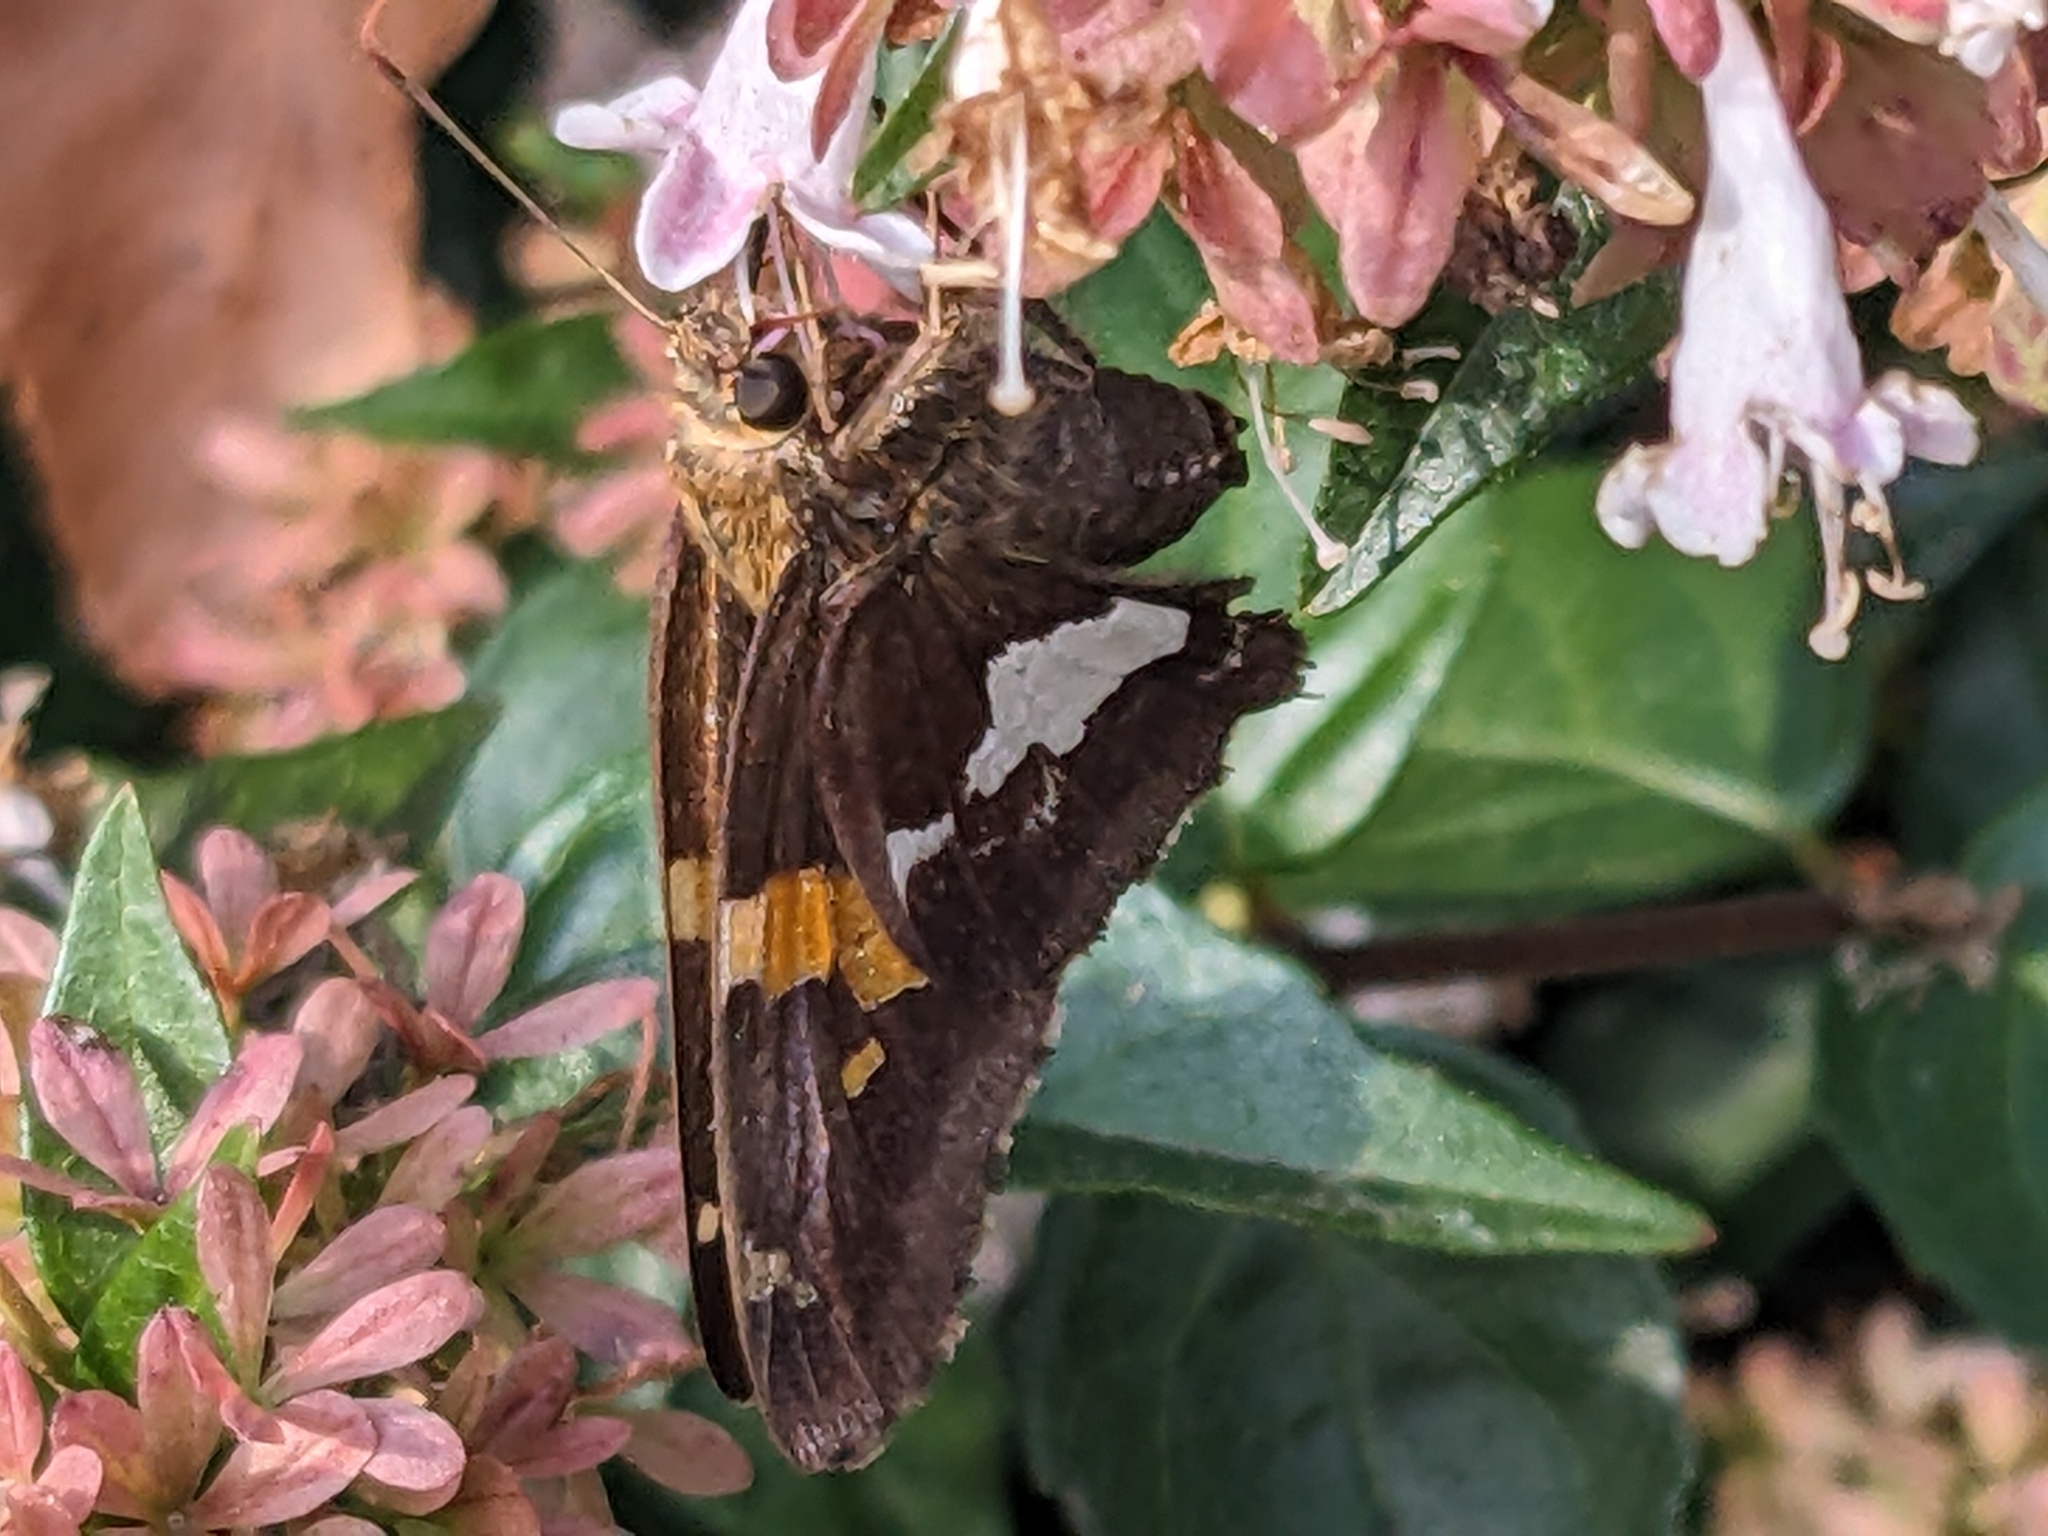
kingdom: Animalia
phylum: Arthropoda
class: Insecta
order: Lepidoptera
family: Hesperiidae
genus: Epargyreus
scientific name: Epargyreus clarus
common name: Silver-spotted skipper
